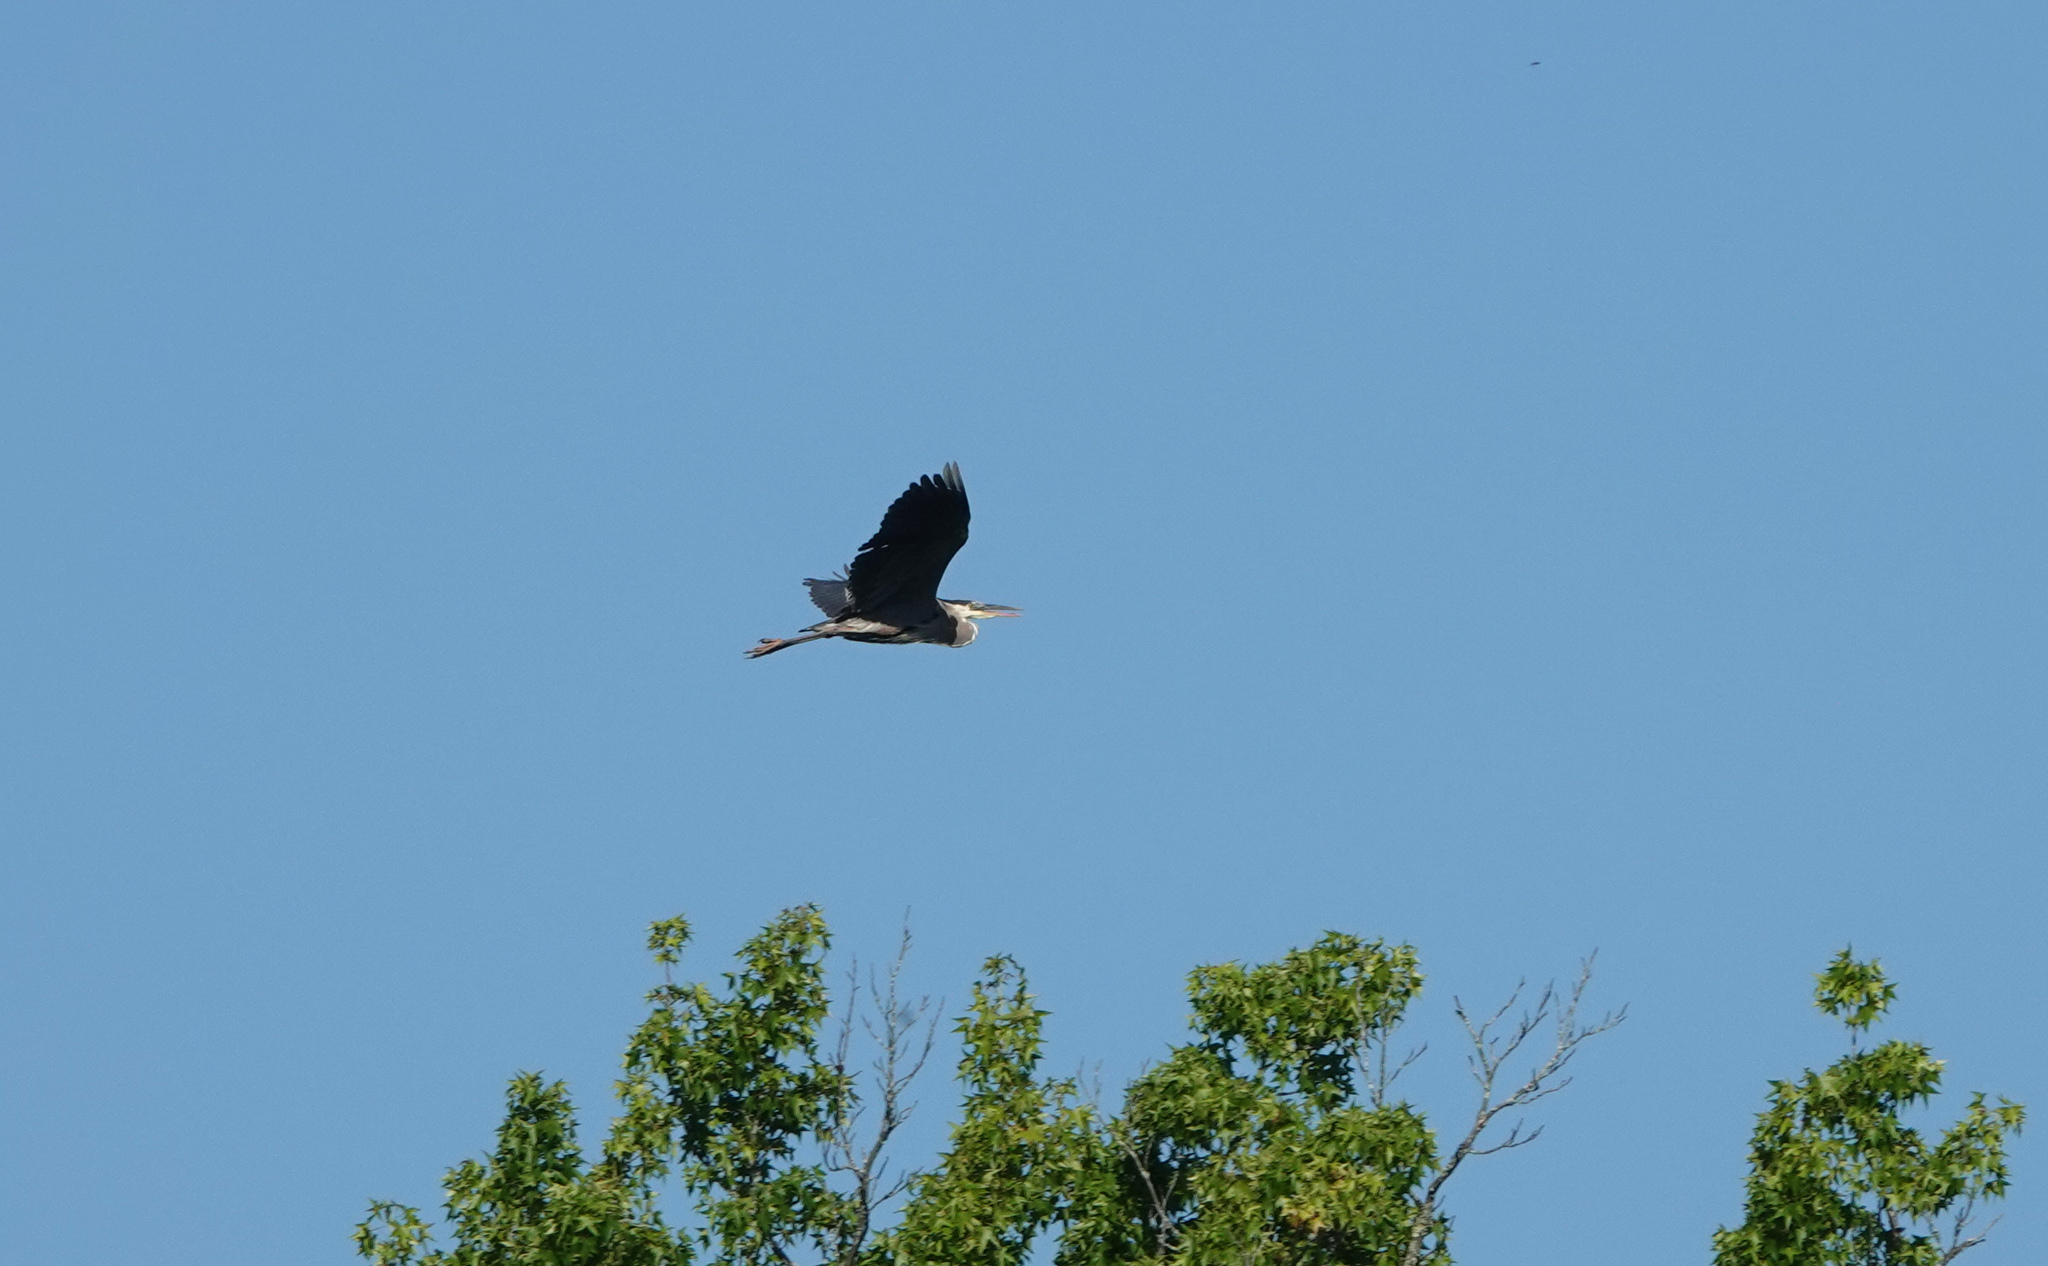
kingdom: Animalia
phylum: Chordata
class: Aves
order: Pelecaniformes
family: Ardeidae
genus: Ardea
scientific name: Ardea herodias
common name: Great blue heron
